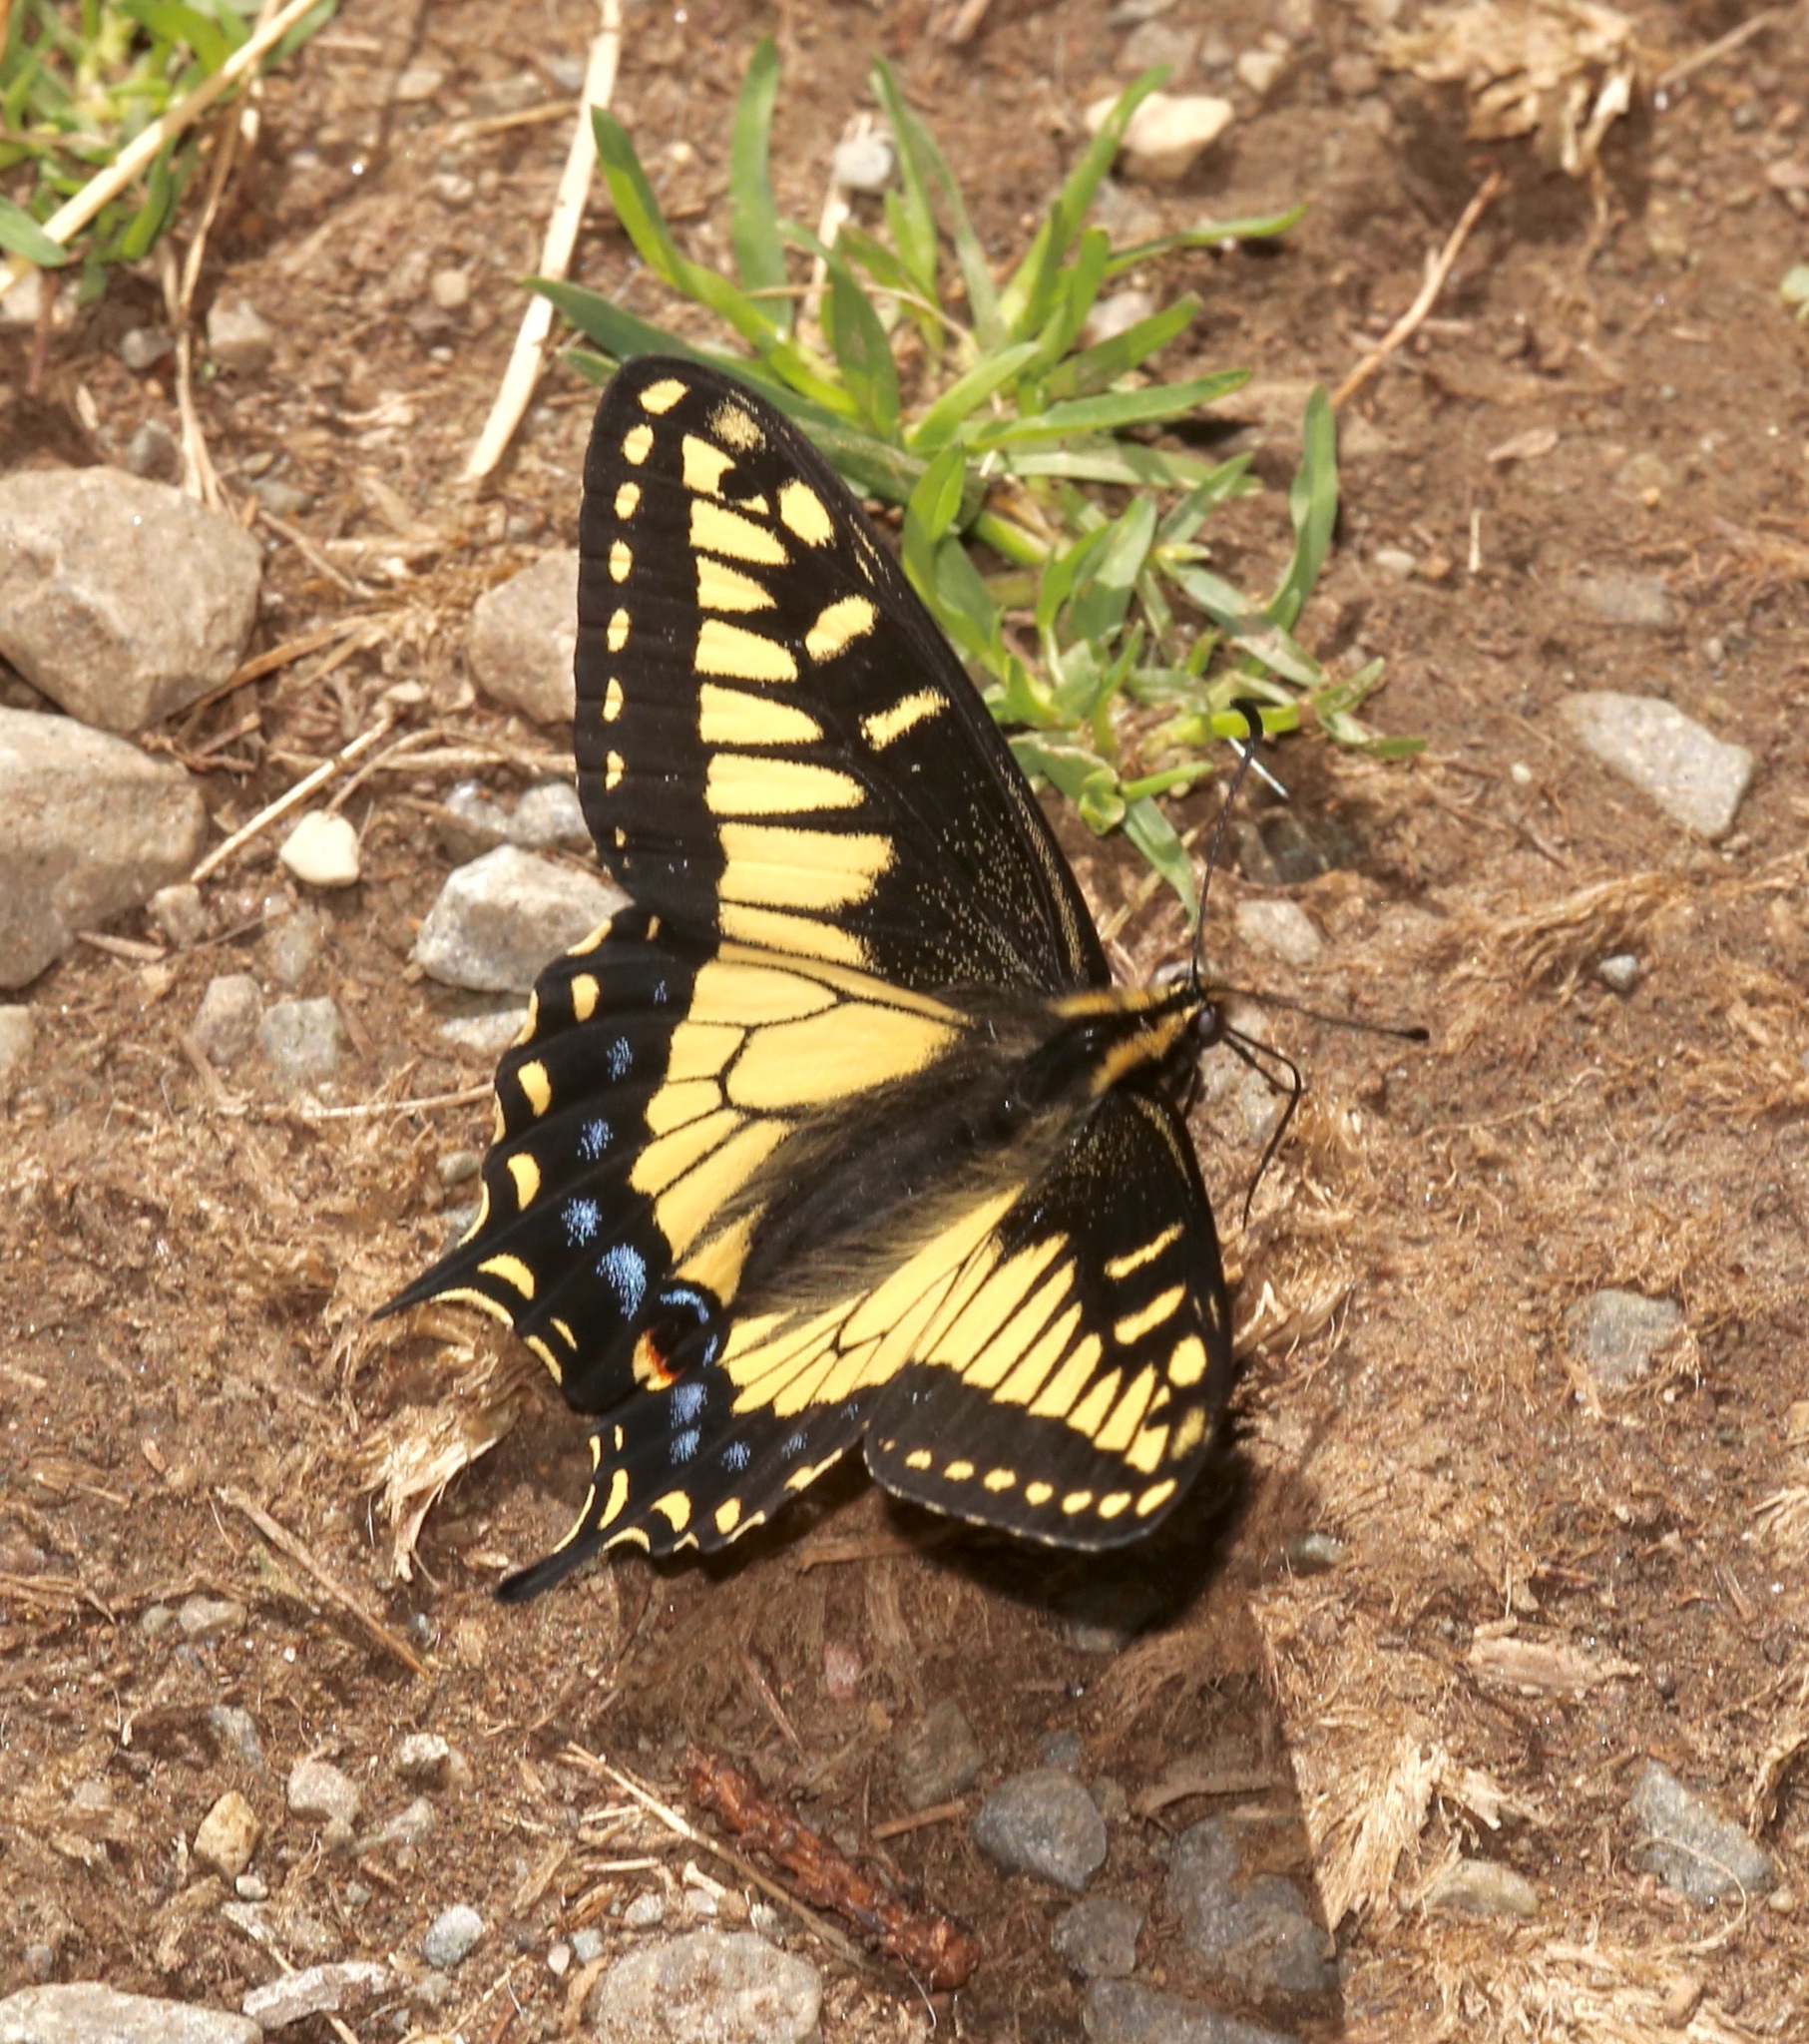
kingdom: Animalia
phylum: Arthropoda
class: Insecta
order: Lepidoptera
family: Papilionidae
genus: Papilio
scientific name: Papilio zelicaon
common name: Anise swallowtail
